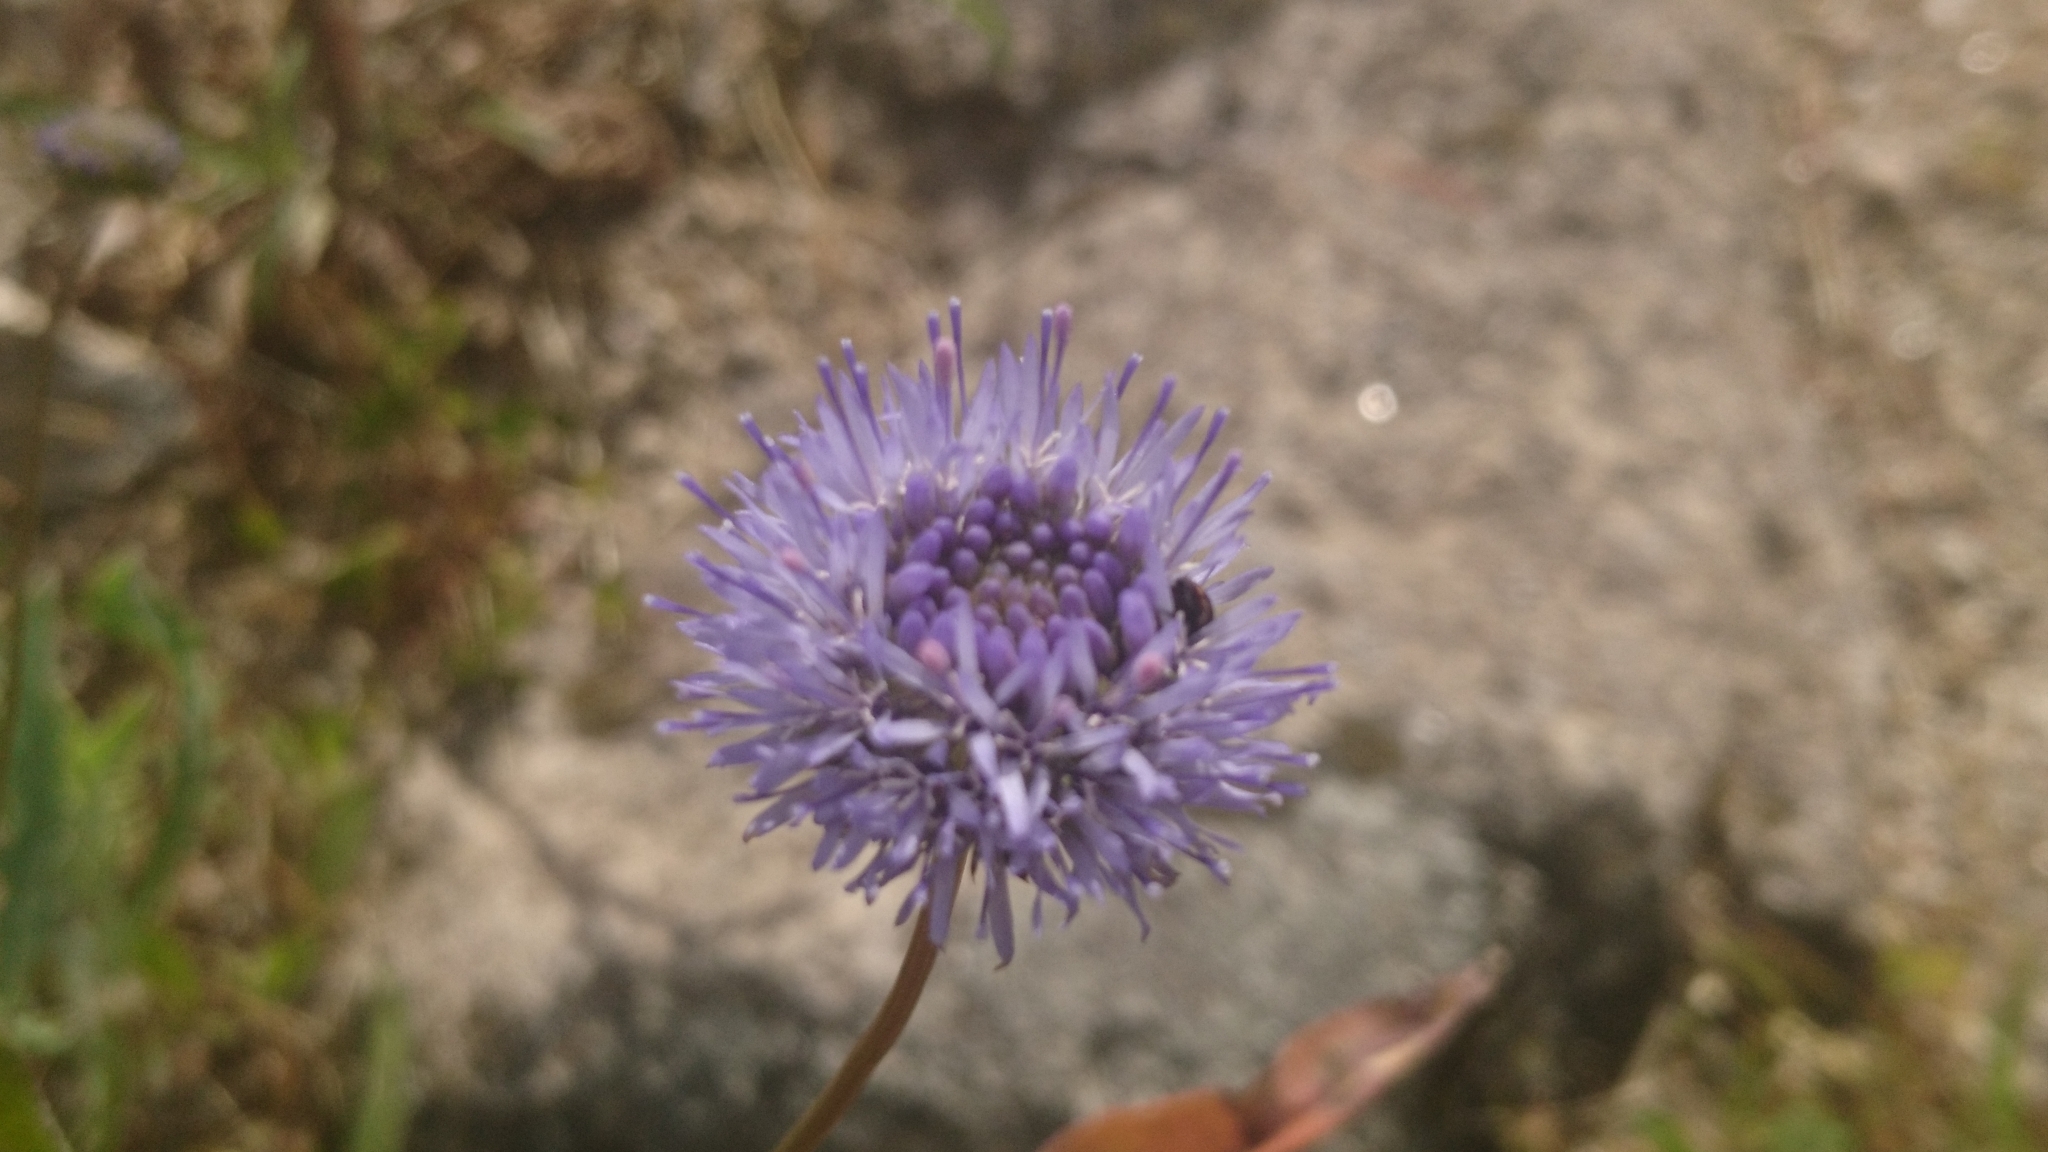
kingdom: Plantae
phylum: Tracheophyta
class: Magnoliopsida
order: Asterales
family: Campanulaceae
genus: Jasione
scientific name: Jasione montana
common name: Sheep's-bit
